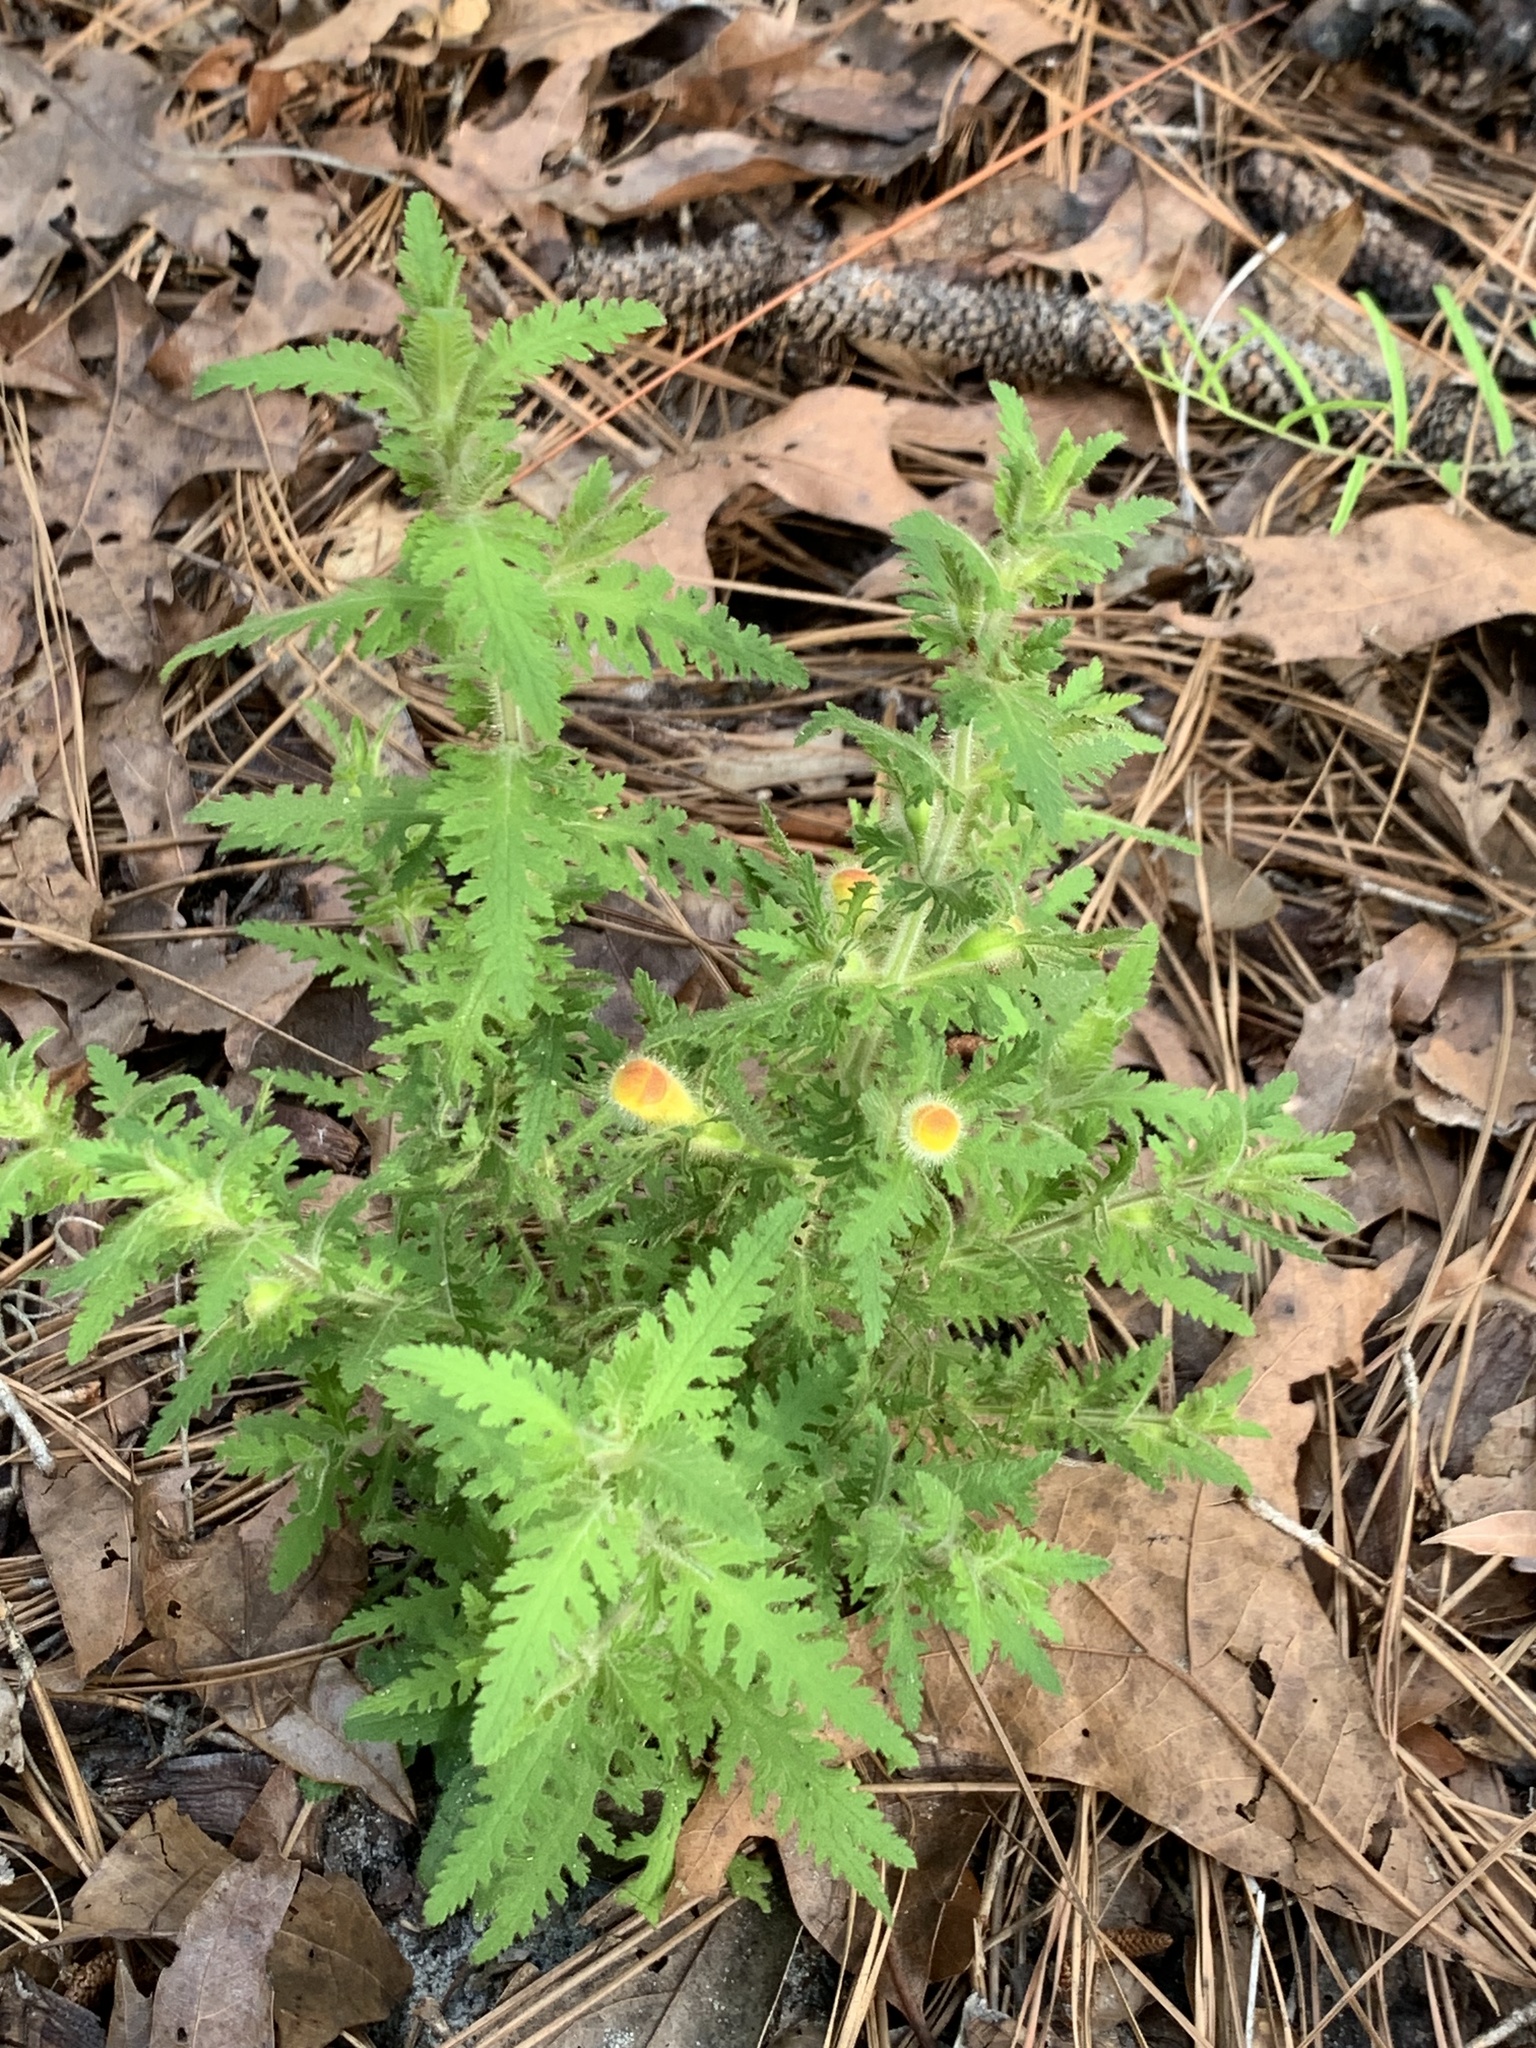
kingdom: Plantae
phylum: Tracheophyta
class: Magnoliopsida
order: Lamiales
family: Orobanchaceae
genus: Aureolaria
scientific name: Aureolaria pectinata
